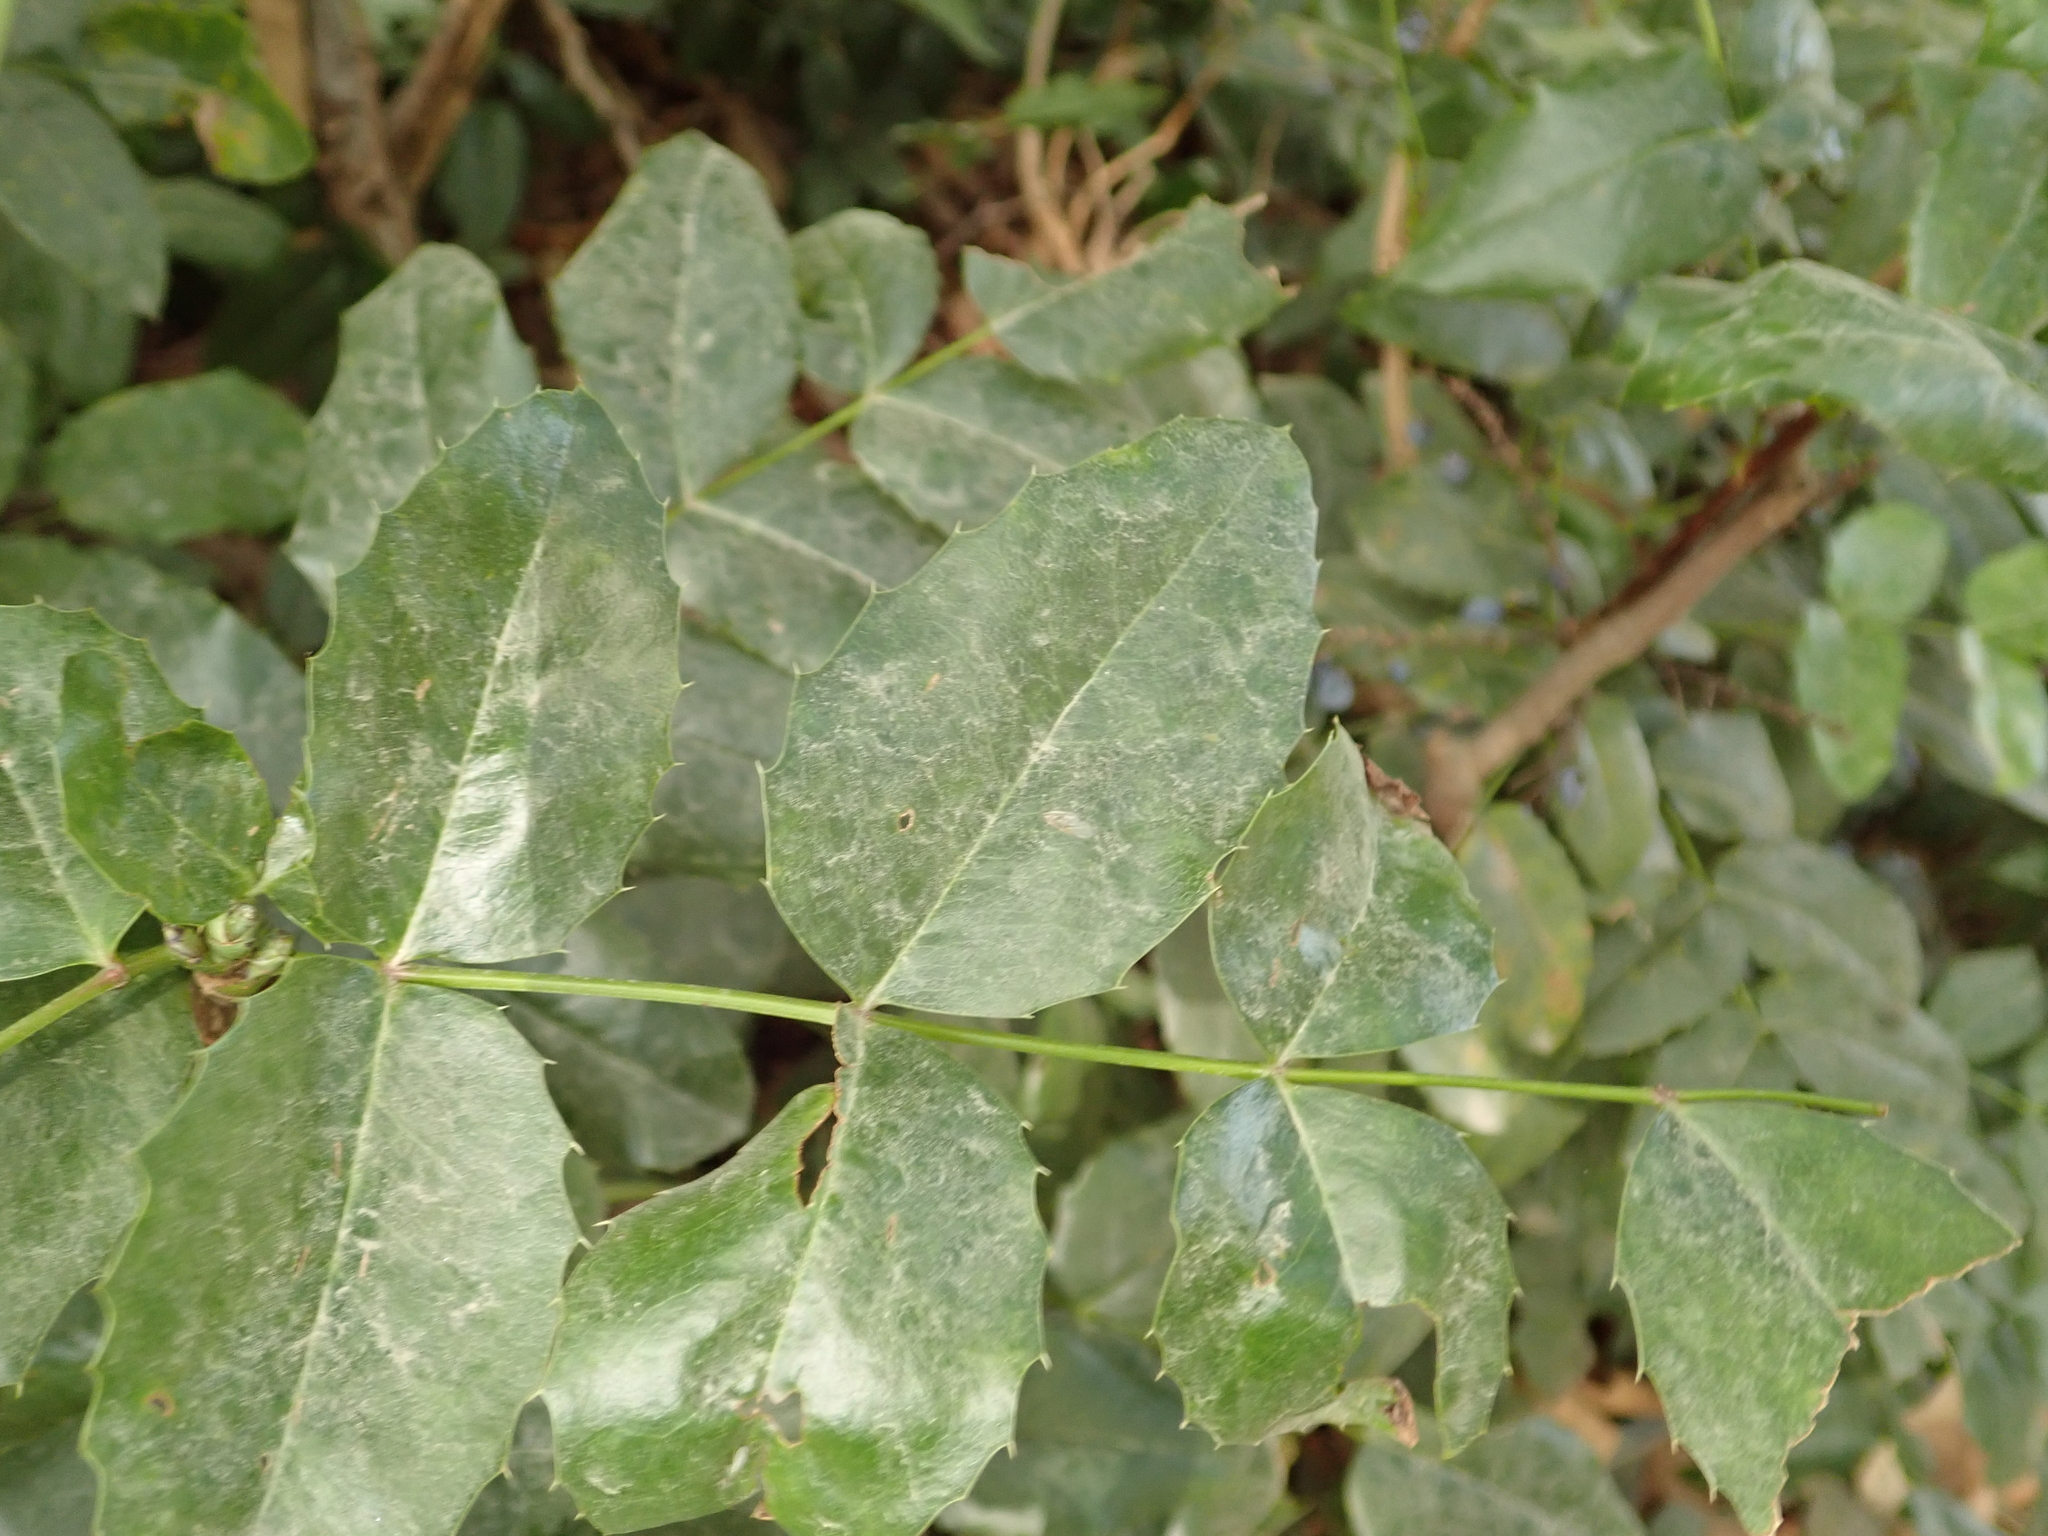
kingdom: Fungi
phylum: Ascomycota
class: Leotiomycetes
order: Helotiales
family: Erysiphaceae
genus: Erysiphe
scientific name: Erysiphe berberidis
